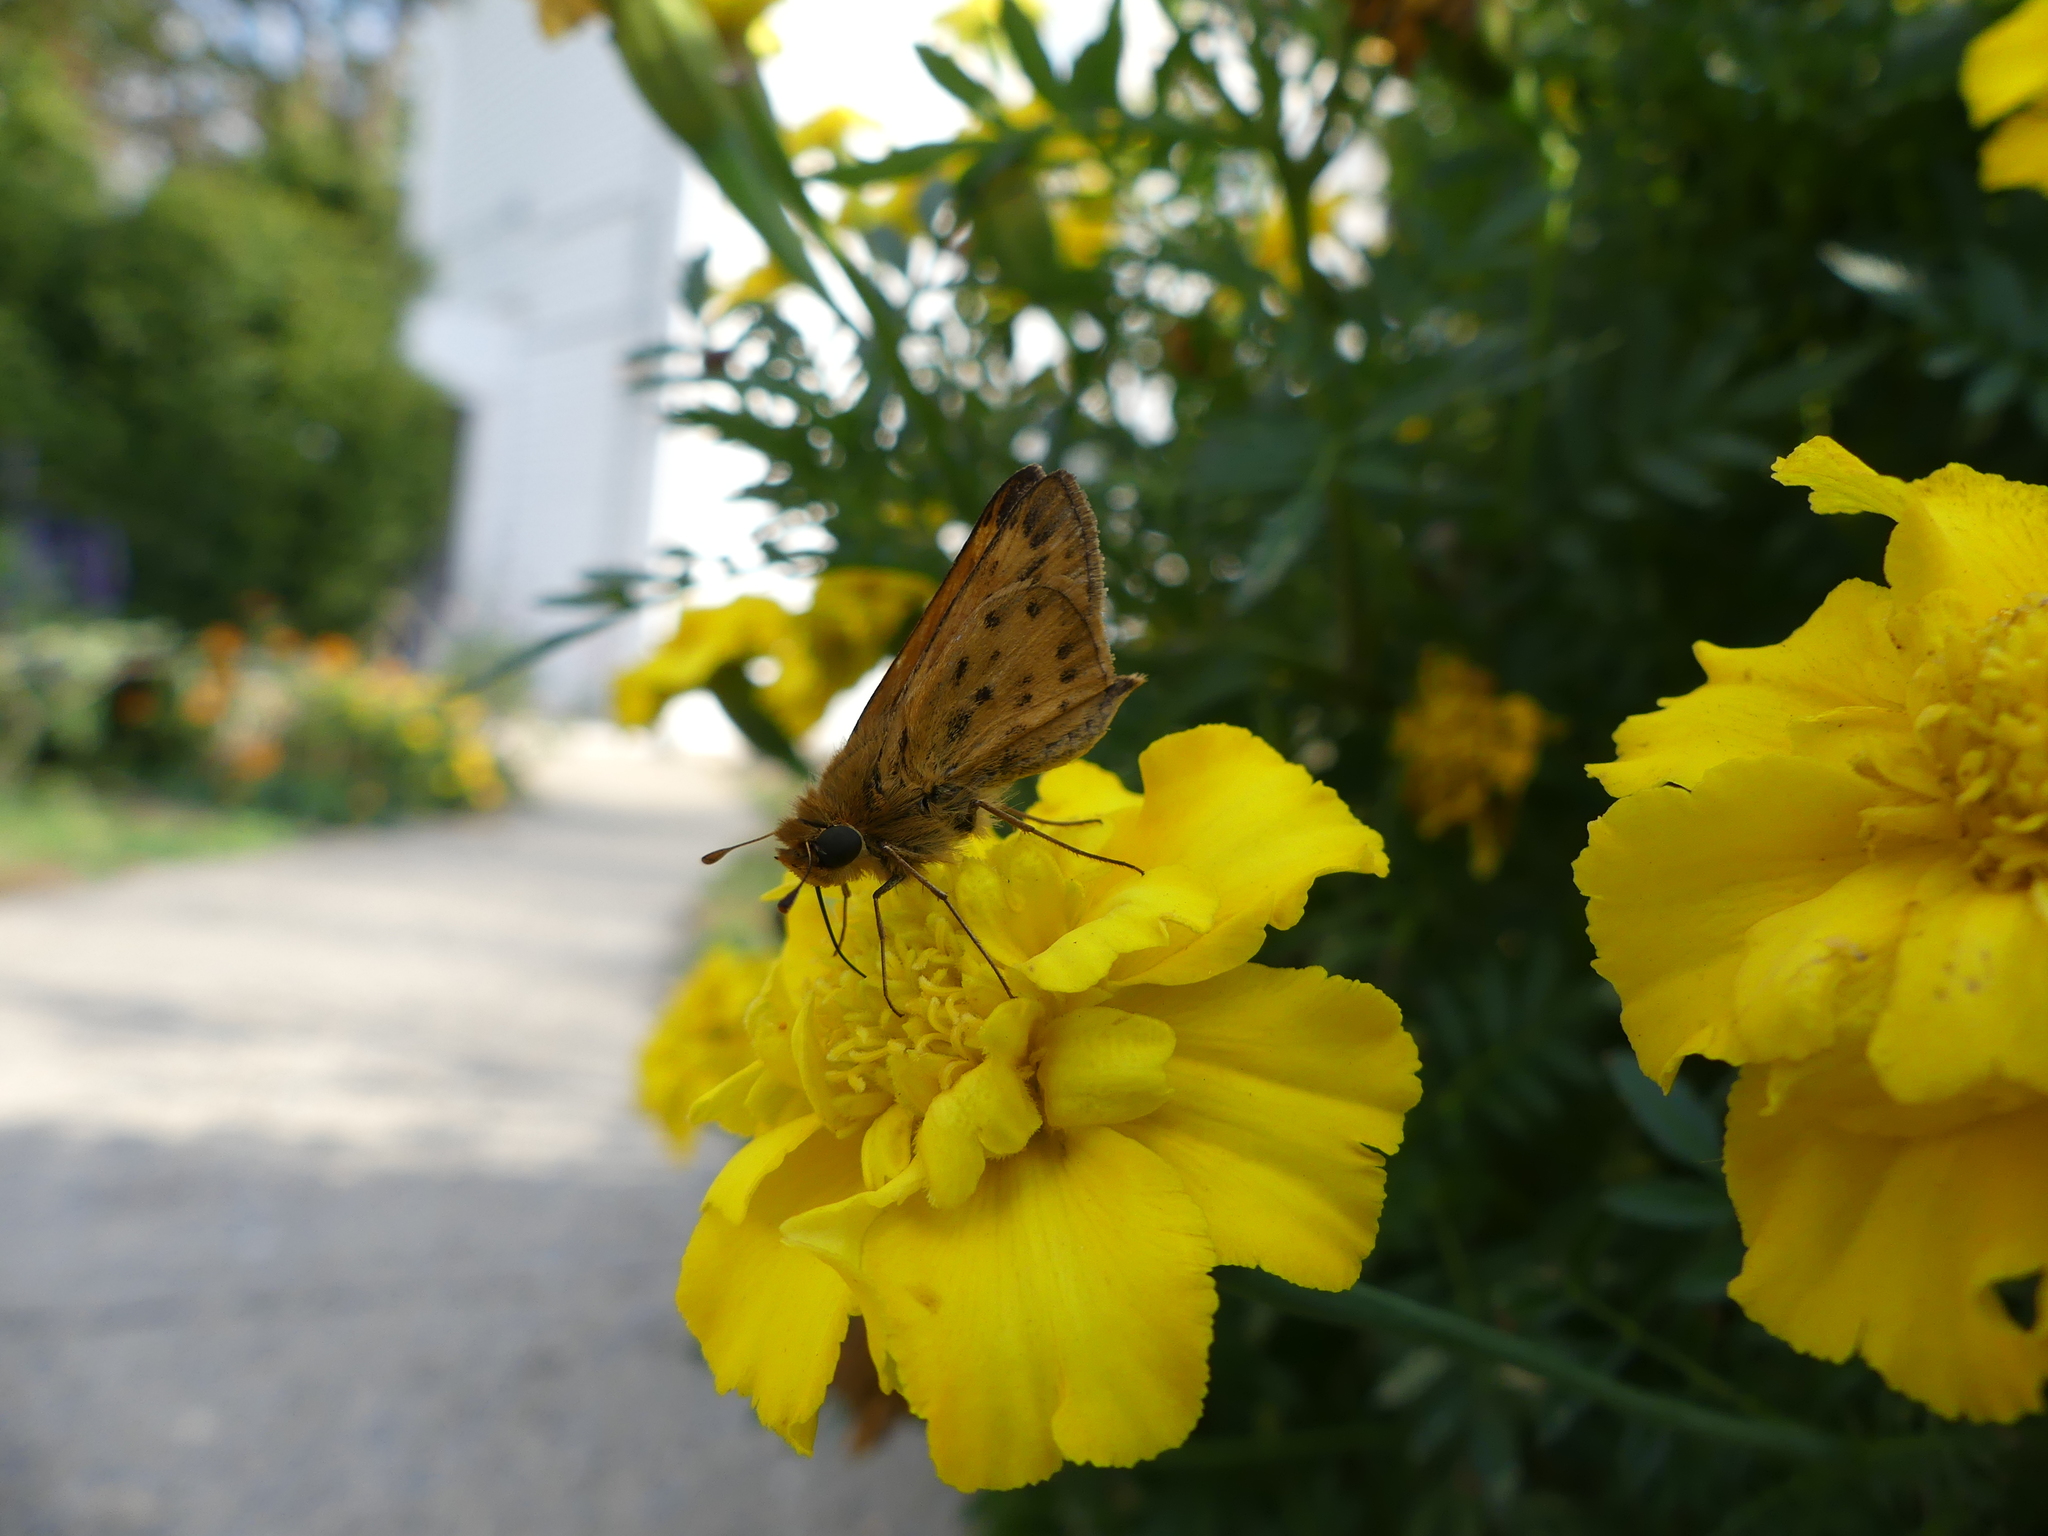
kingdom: Animalia
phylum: Arthropoda
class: Insecta
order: Lepidoptera
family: Hesperiidae
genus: Hylephila
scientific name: Hylephila phyleus
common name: Fiery skipper
